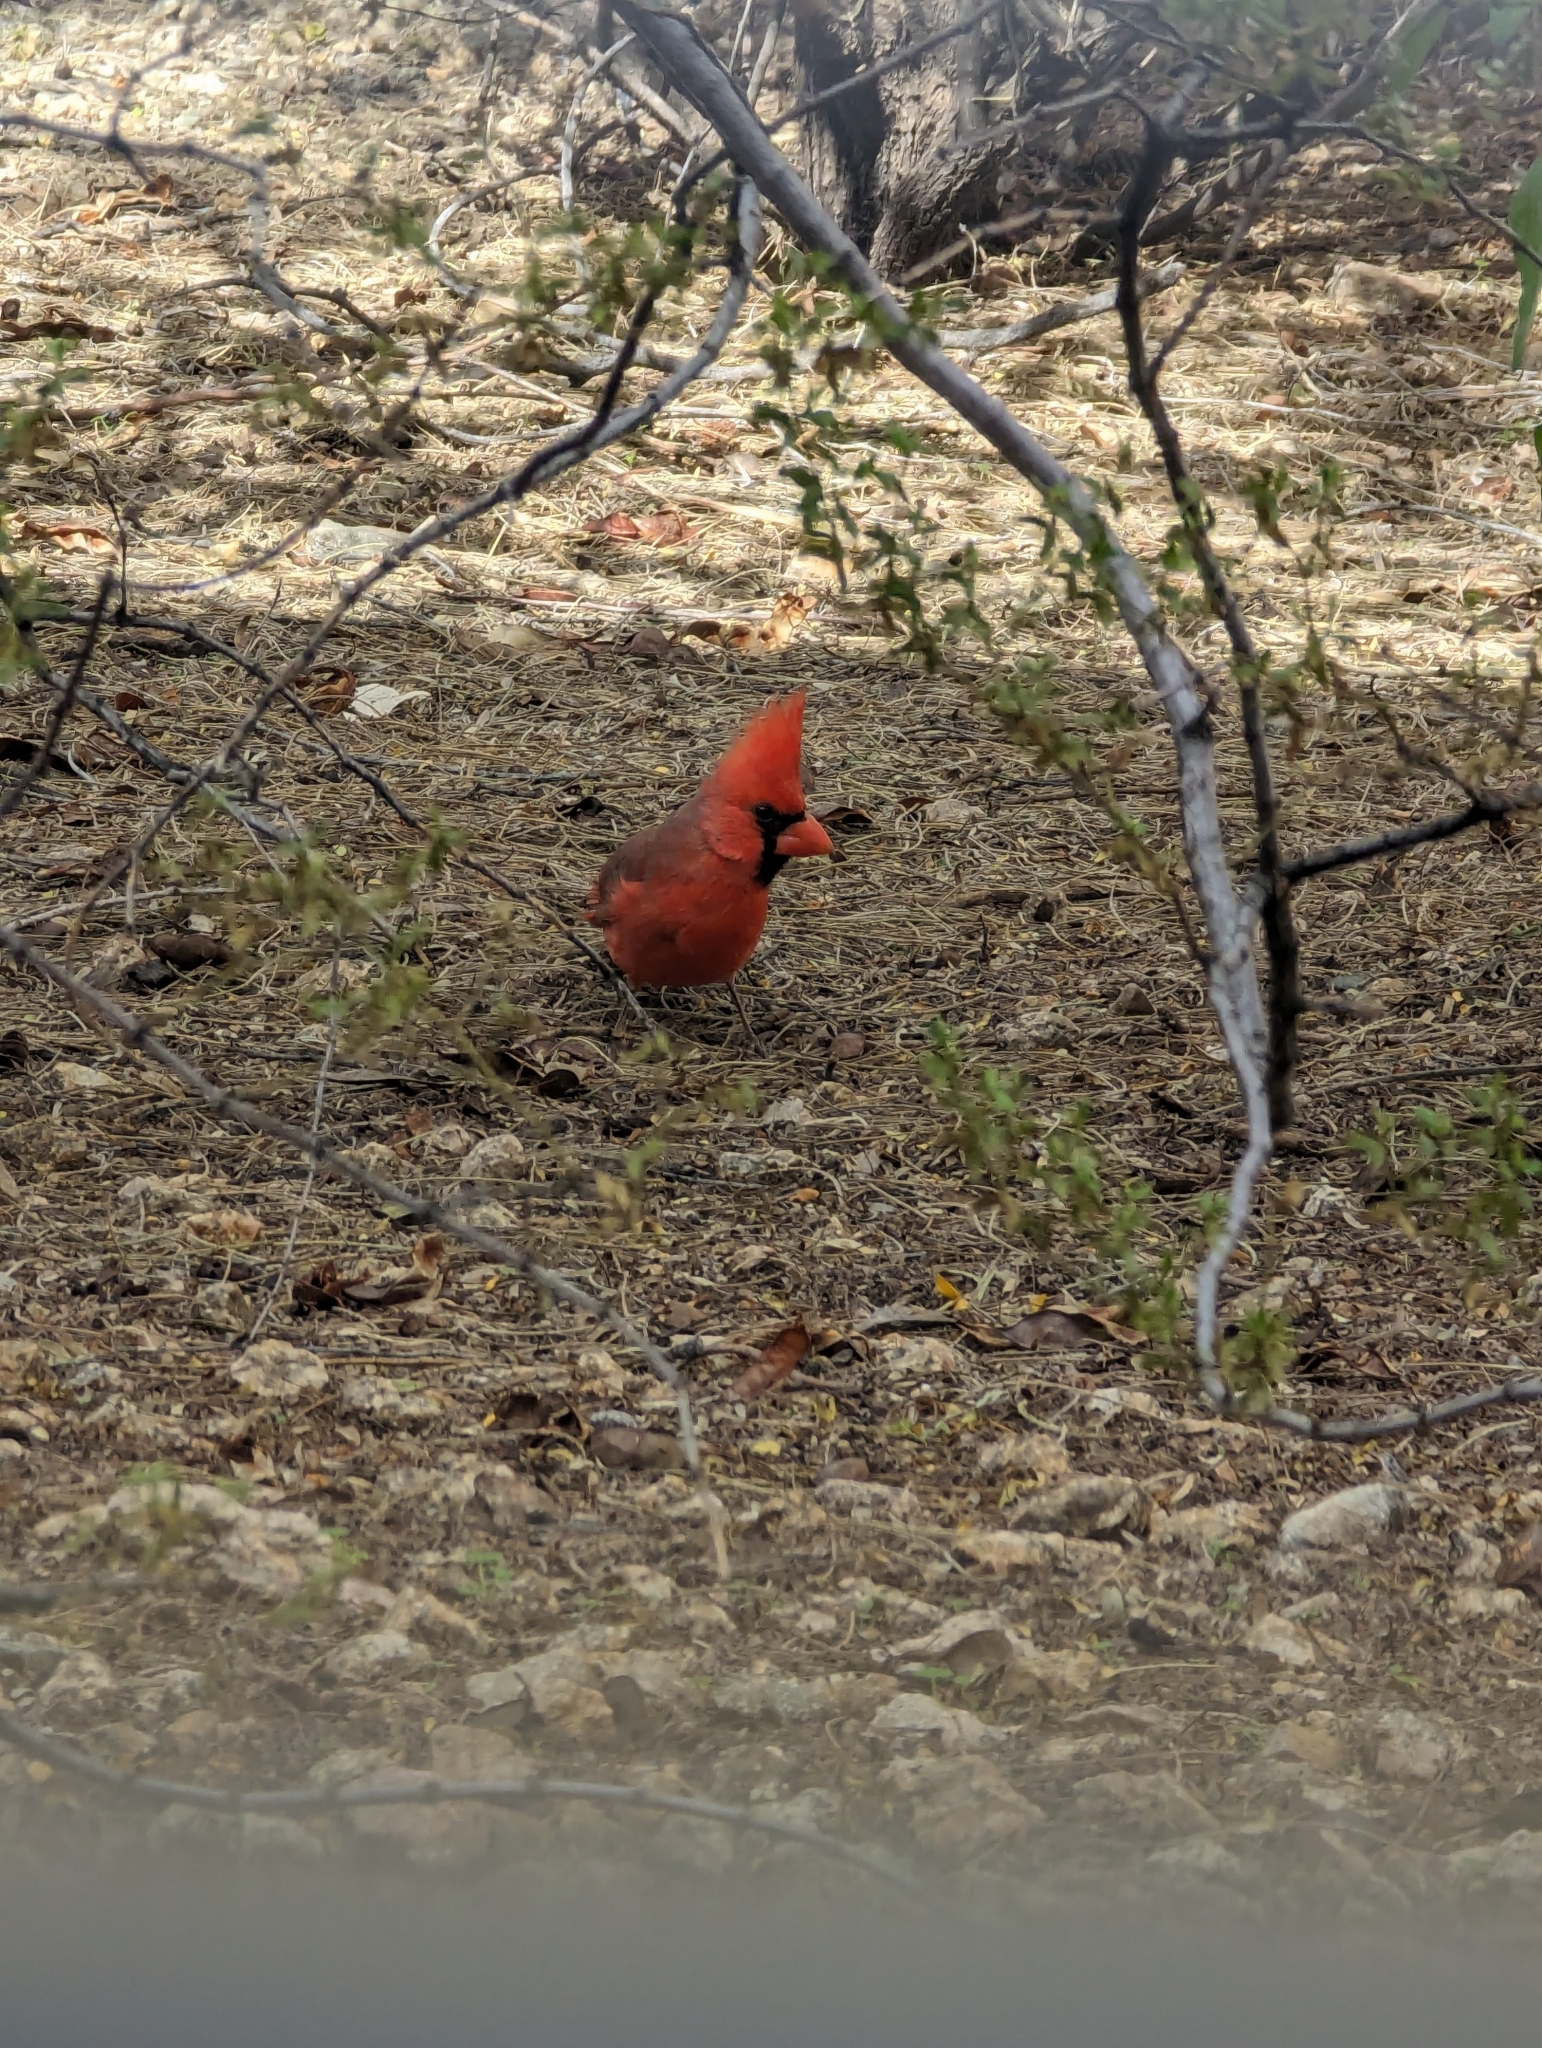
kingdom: Animalia
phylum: Chordata
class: Aves
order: Passeriformes
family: Cardinalidae
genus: Cardinalis
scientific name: Cardinalis cardinalis
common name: Northern cardinal
